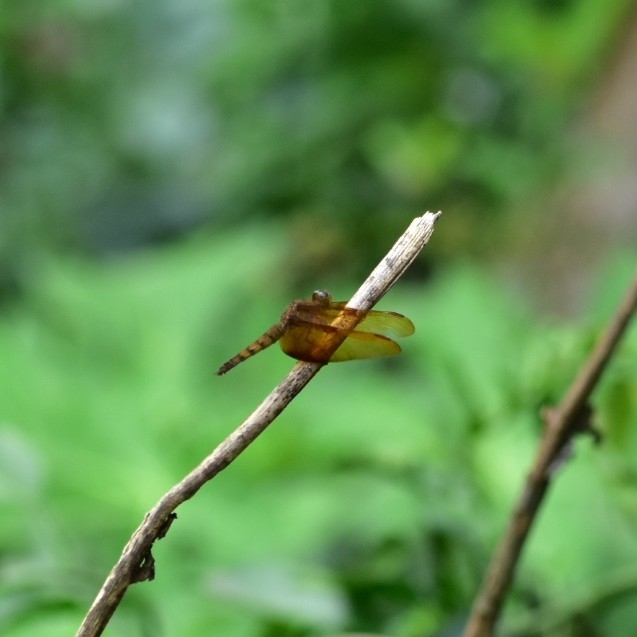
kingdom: Animalia
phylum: Arthropoda
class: Insecta
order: Odonata
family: Libellulidae
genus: Neurothemis
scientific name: Neurothemis fulvia
